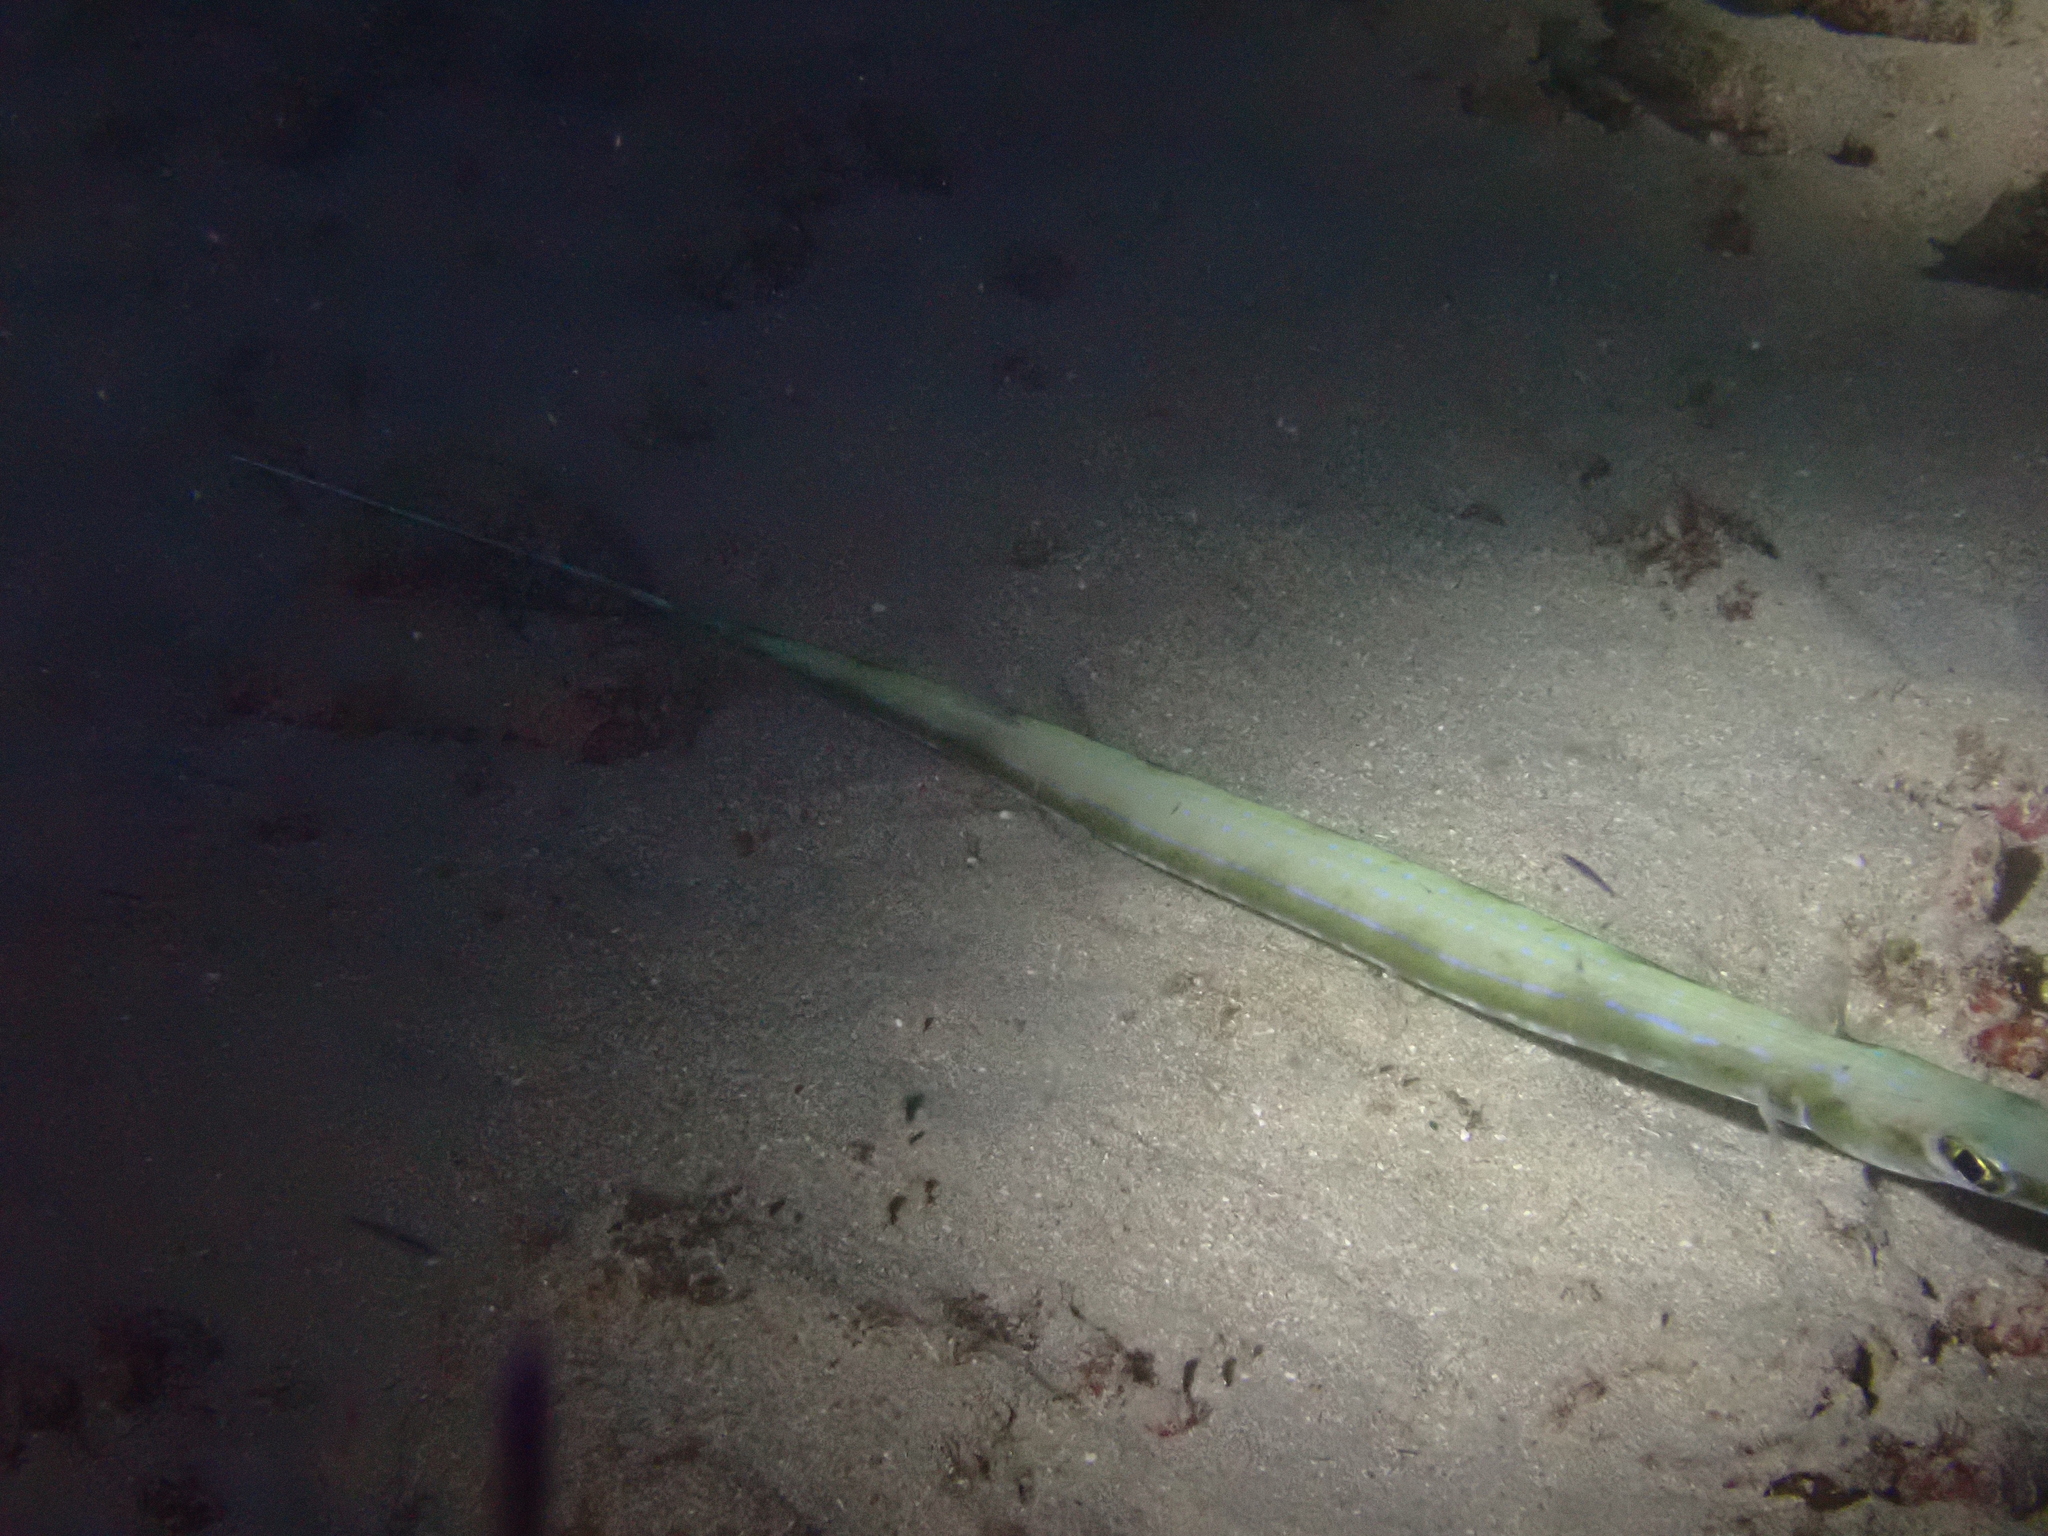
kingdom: Animalia
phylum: Chordata
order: Syngnathiformes
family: Fistulariidae
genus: Fistularia
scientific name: Fistularia commersonii
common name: Bluespotted cornetfish
